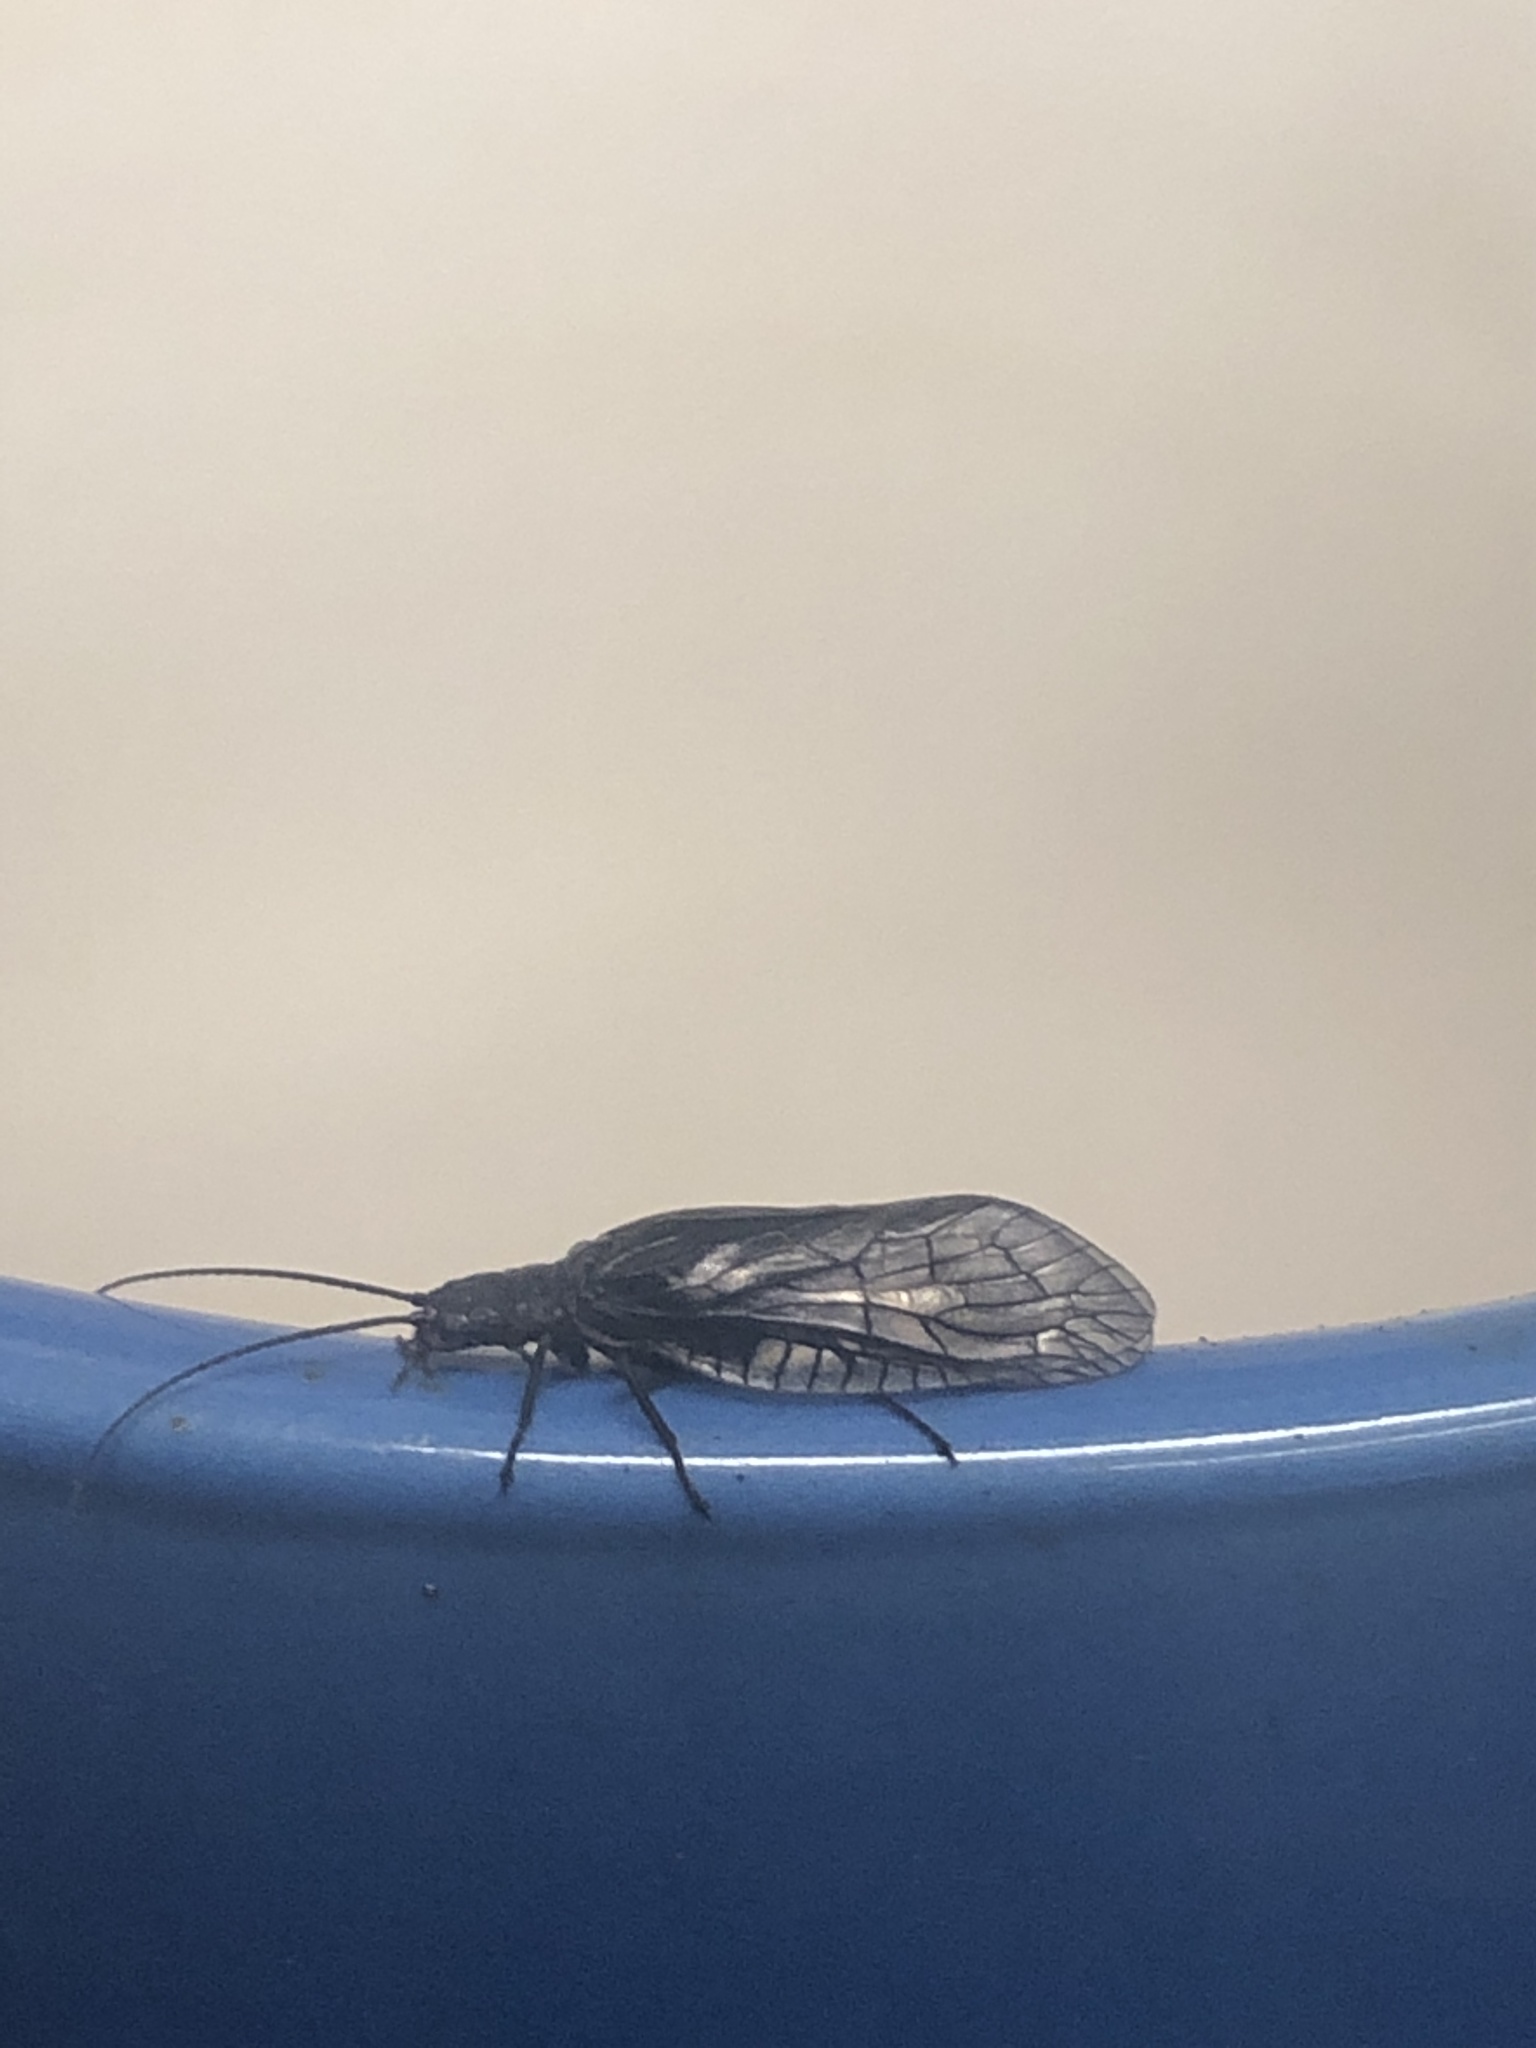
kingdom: Animalia
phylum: Arthropoda
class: Insecta
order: Megaloptera
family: Sialidae
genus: Sialis
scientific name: Sialis
